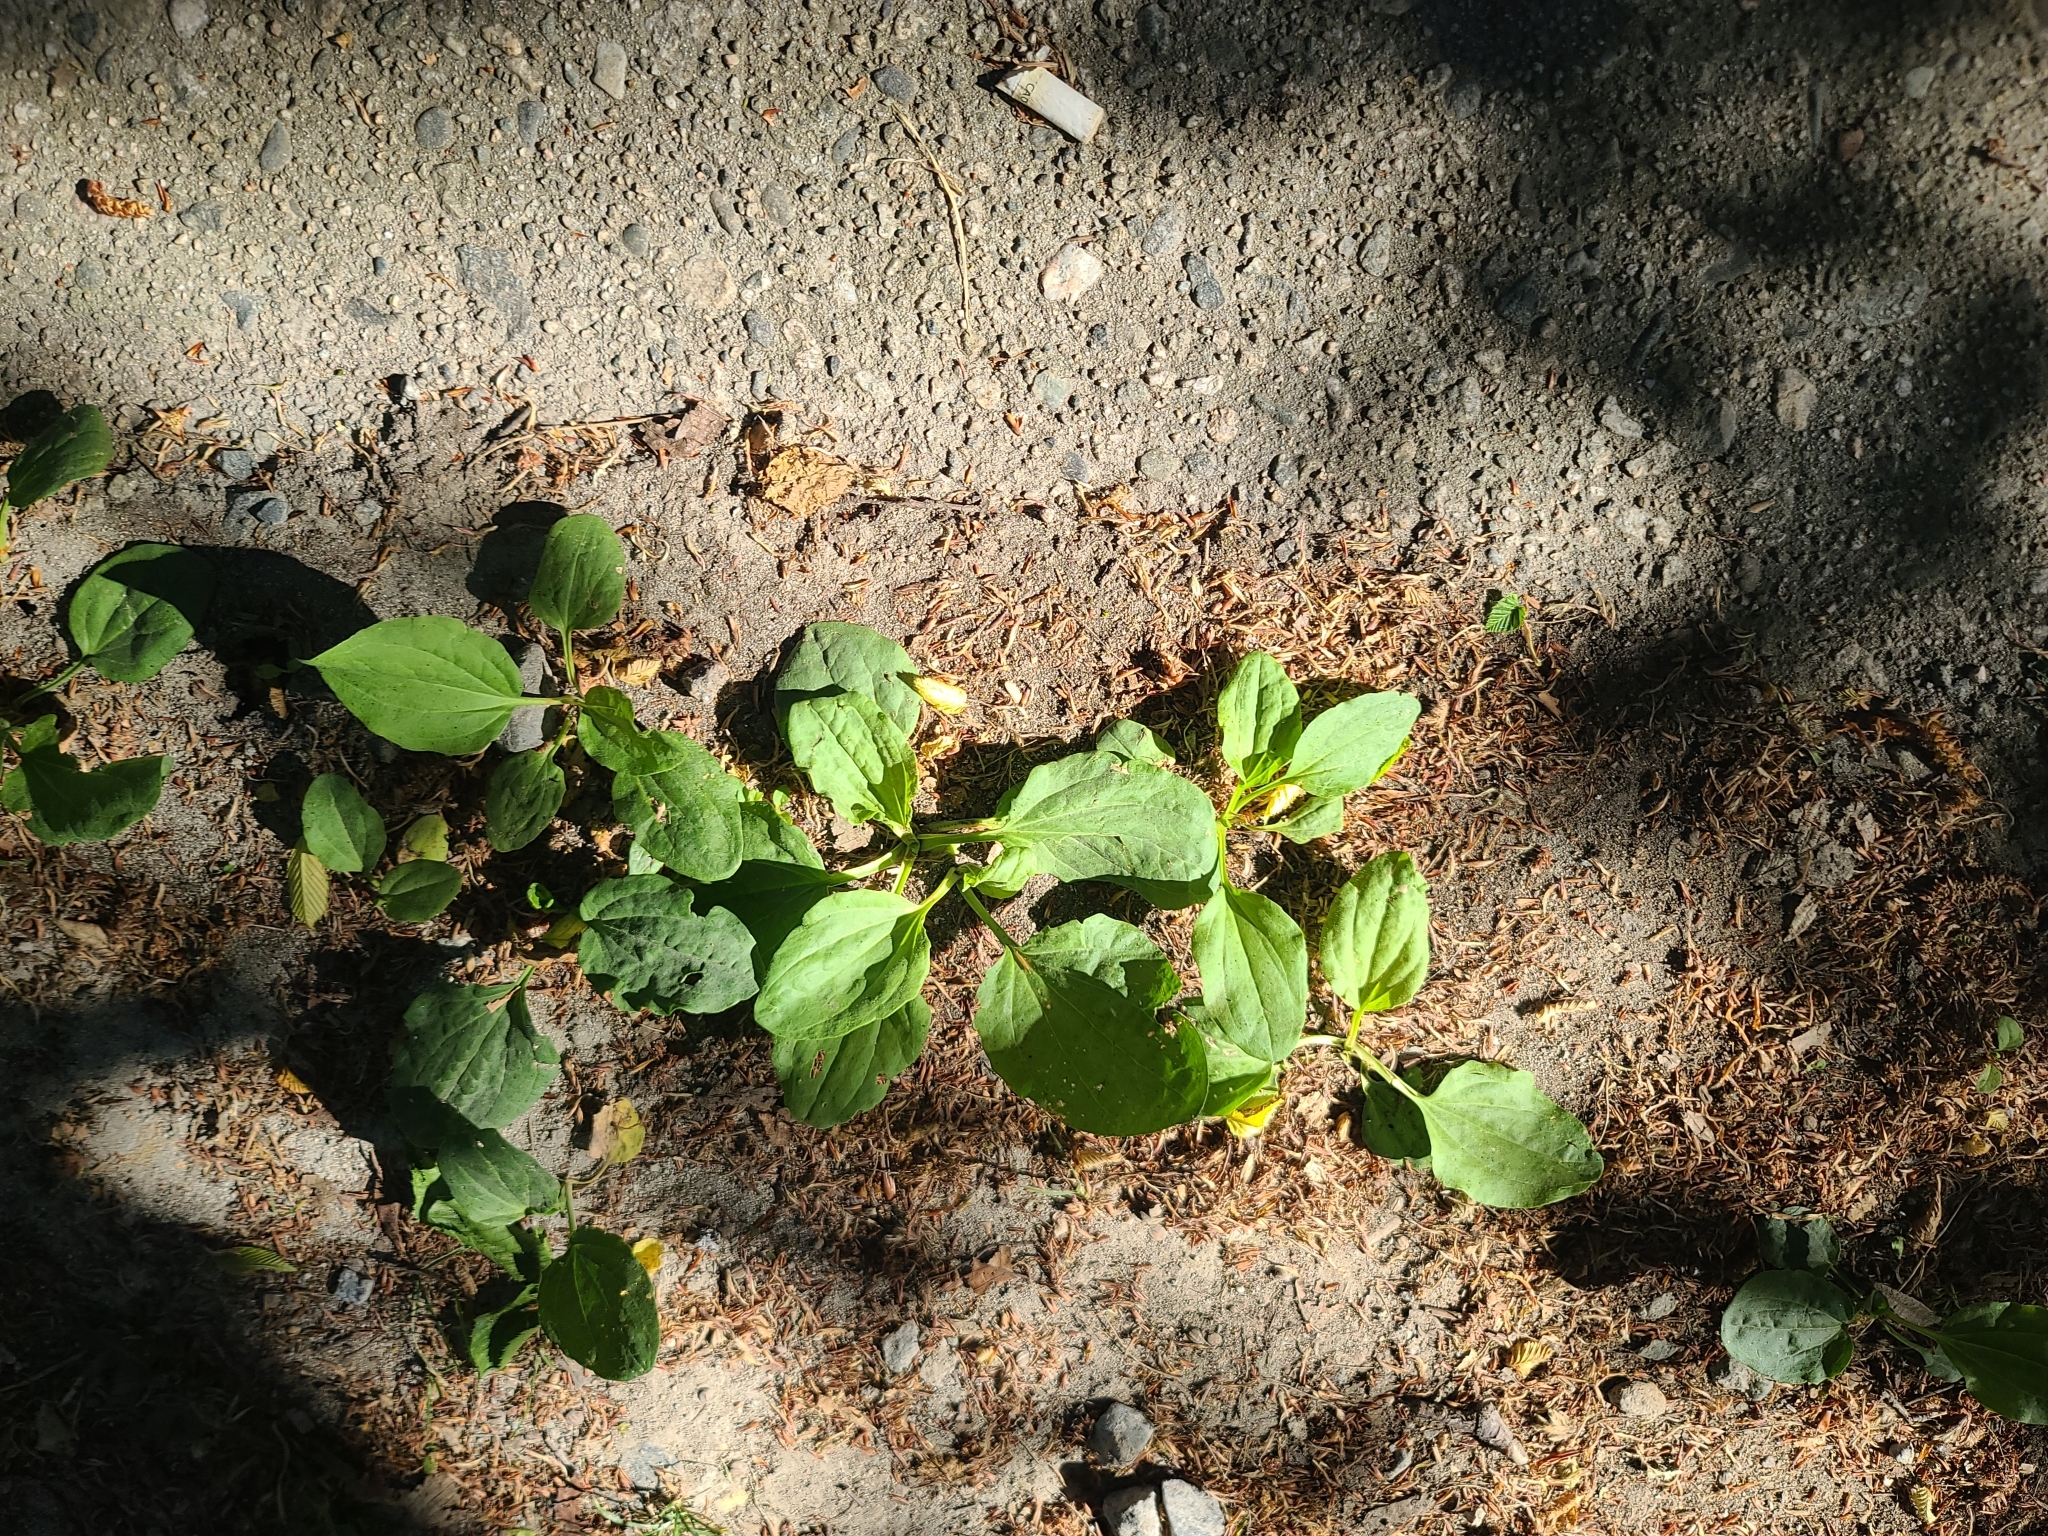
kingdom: Plantae
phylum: Tracheophyta
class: Magnoliopsida
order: Lamiales
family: Plantaginaceae
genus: Plantago
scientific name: Plantago major
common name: Common plantain
